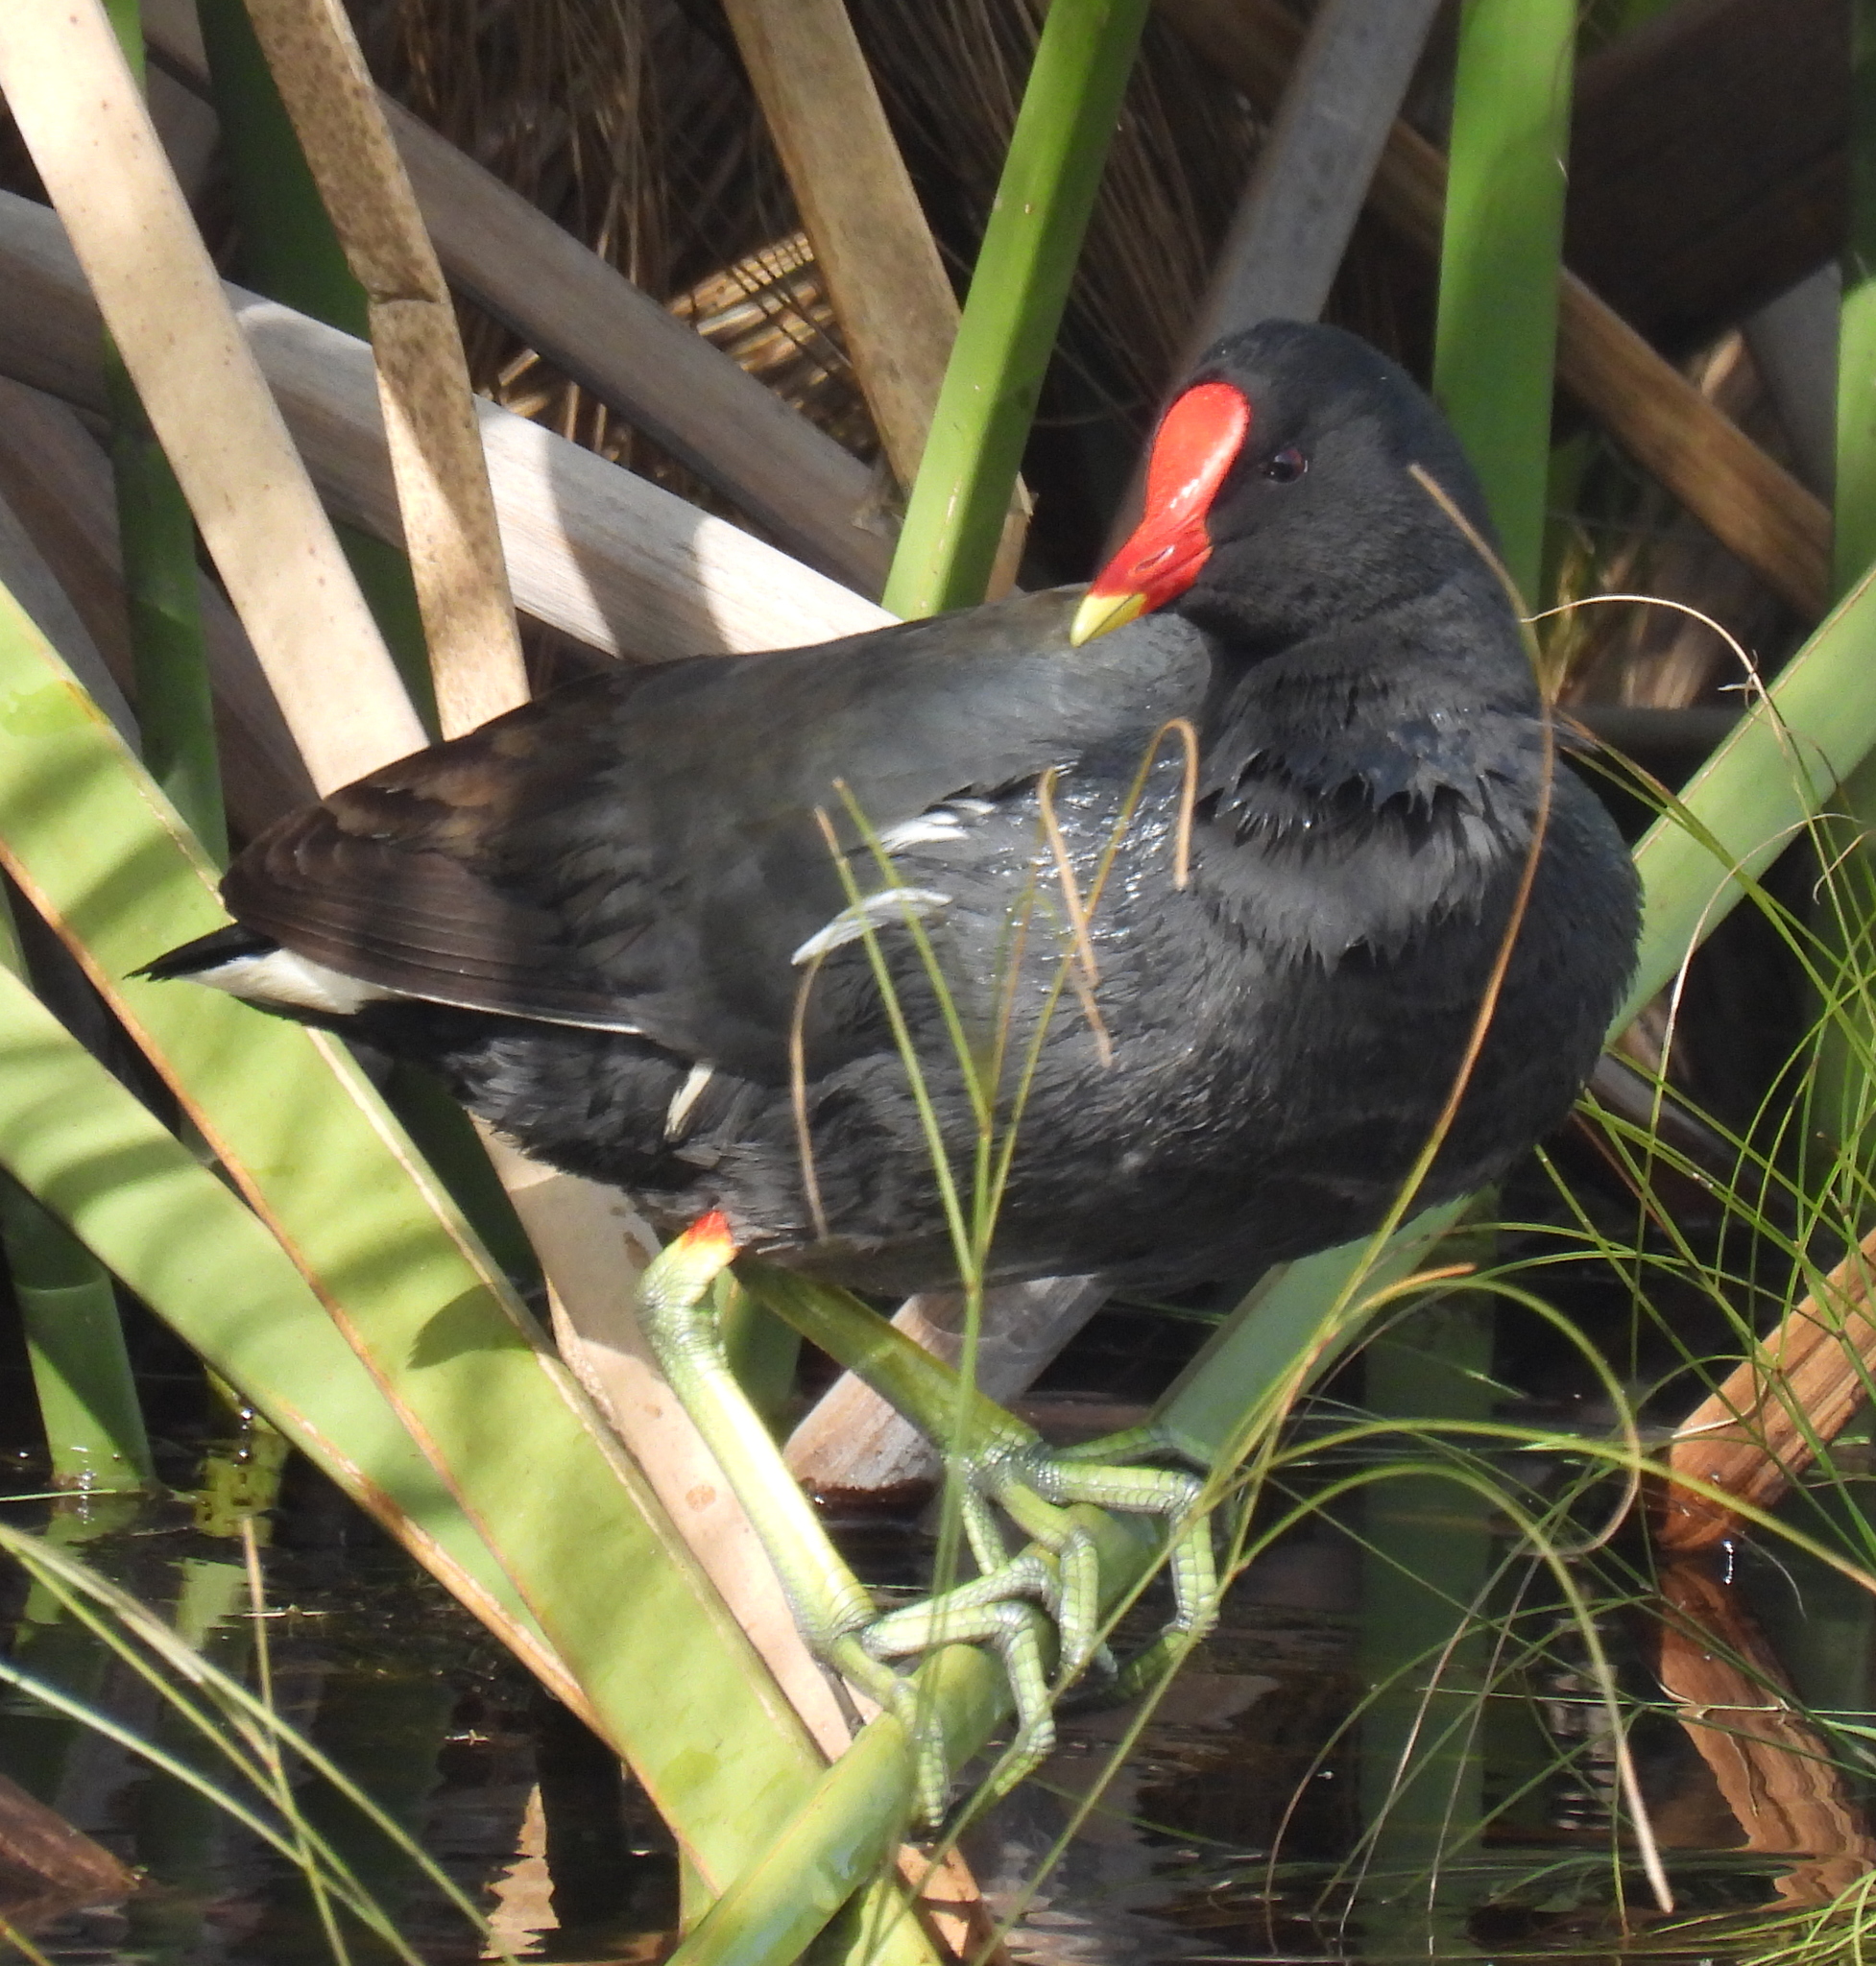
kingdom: Animalia
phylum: Chordata
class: Aves
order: Gruiformes
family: Rallidae
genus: Gallinula
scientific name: Gallinula chloropus
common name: Common moorhen
